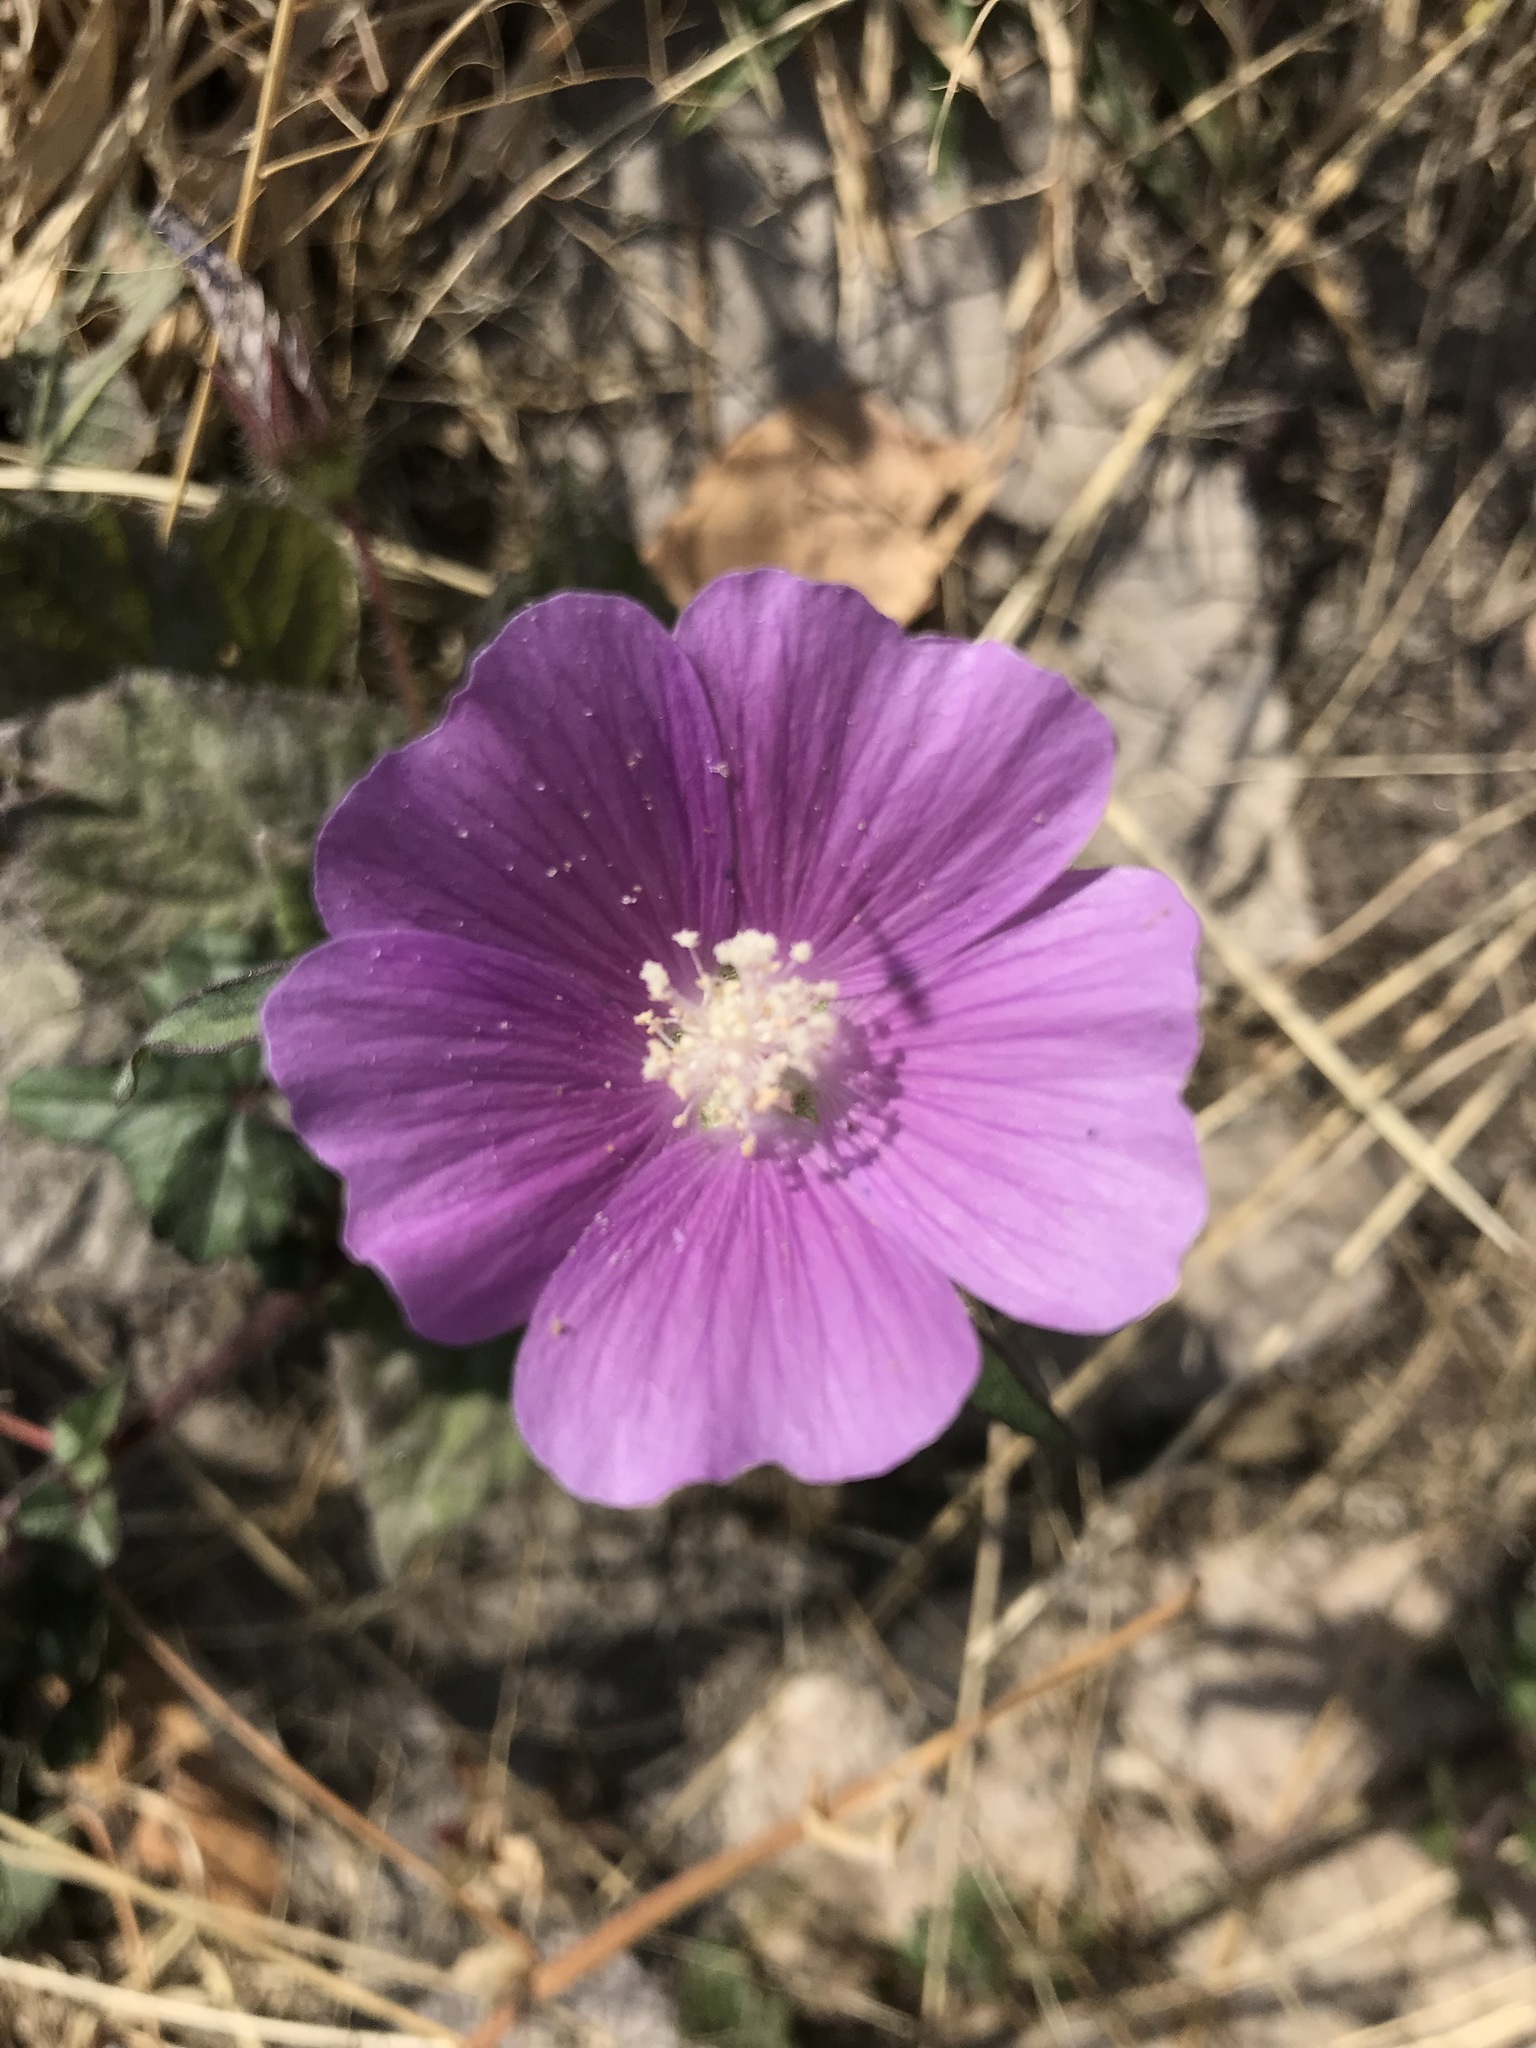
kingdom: Plantae
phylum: Tracheophyta
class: Magnoliopsida
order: Malvales
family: Malvaceae
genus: Anoda
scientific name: Anoda cristata
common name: Spurred anoda
